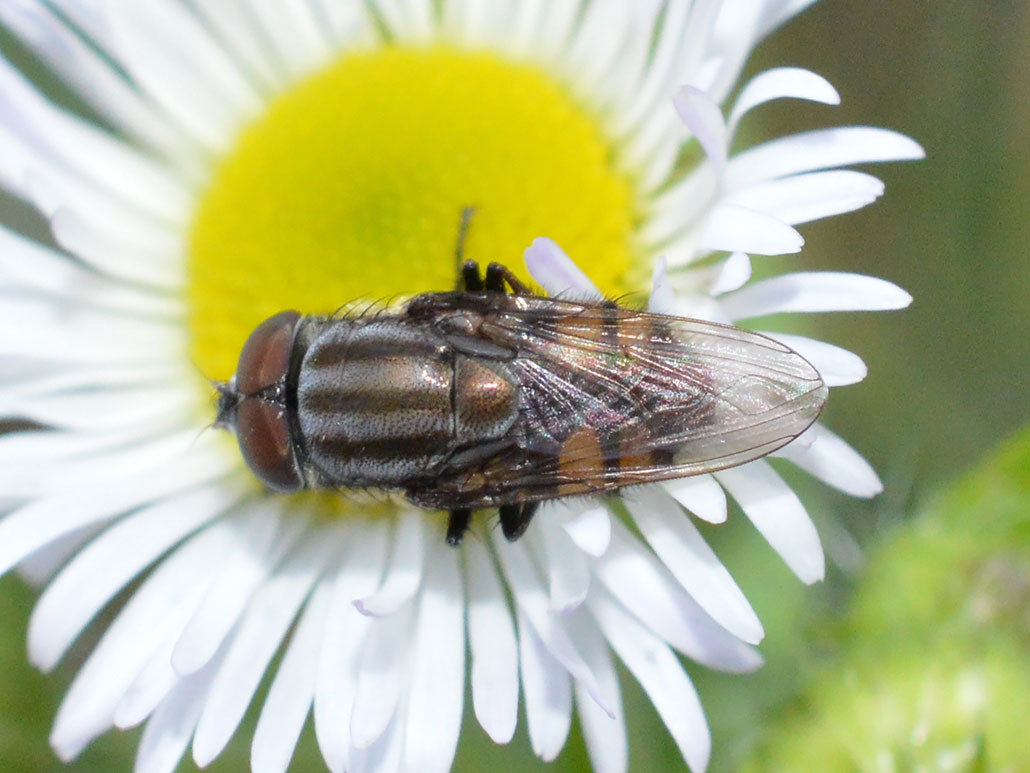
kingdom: Animalia
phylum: Arthropoda
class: Insecta
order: Diptera
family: Calliphoridae
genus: Stomorhina
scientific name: Stomorhina lunata
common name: Locust blowfly
